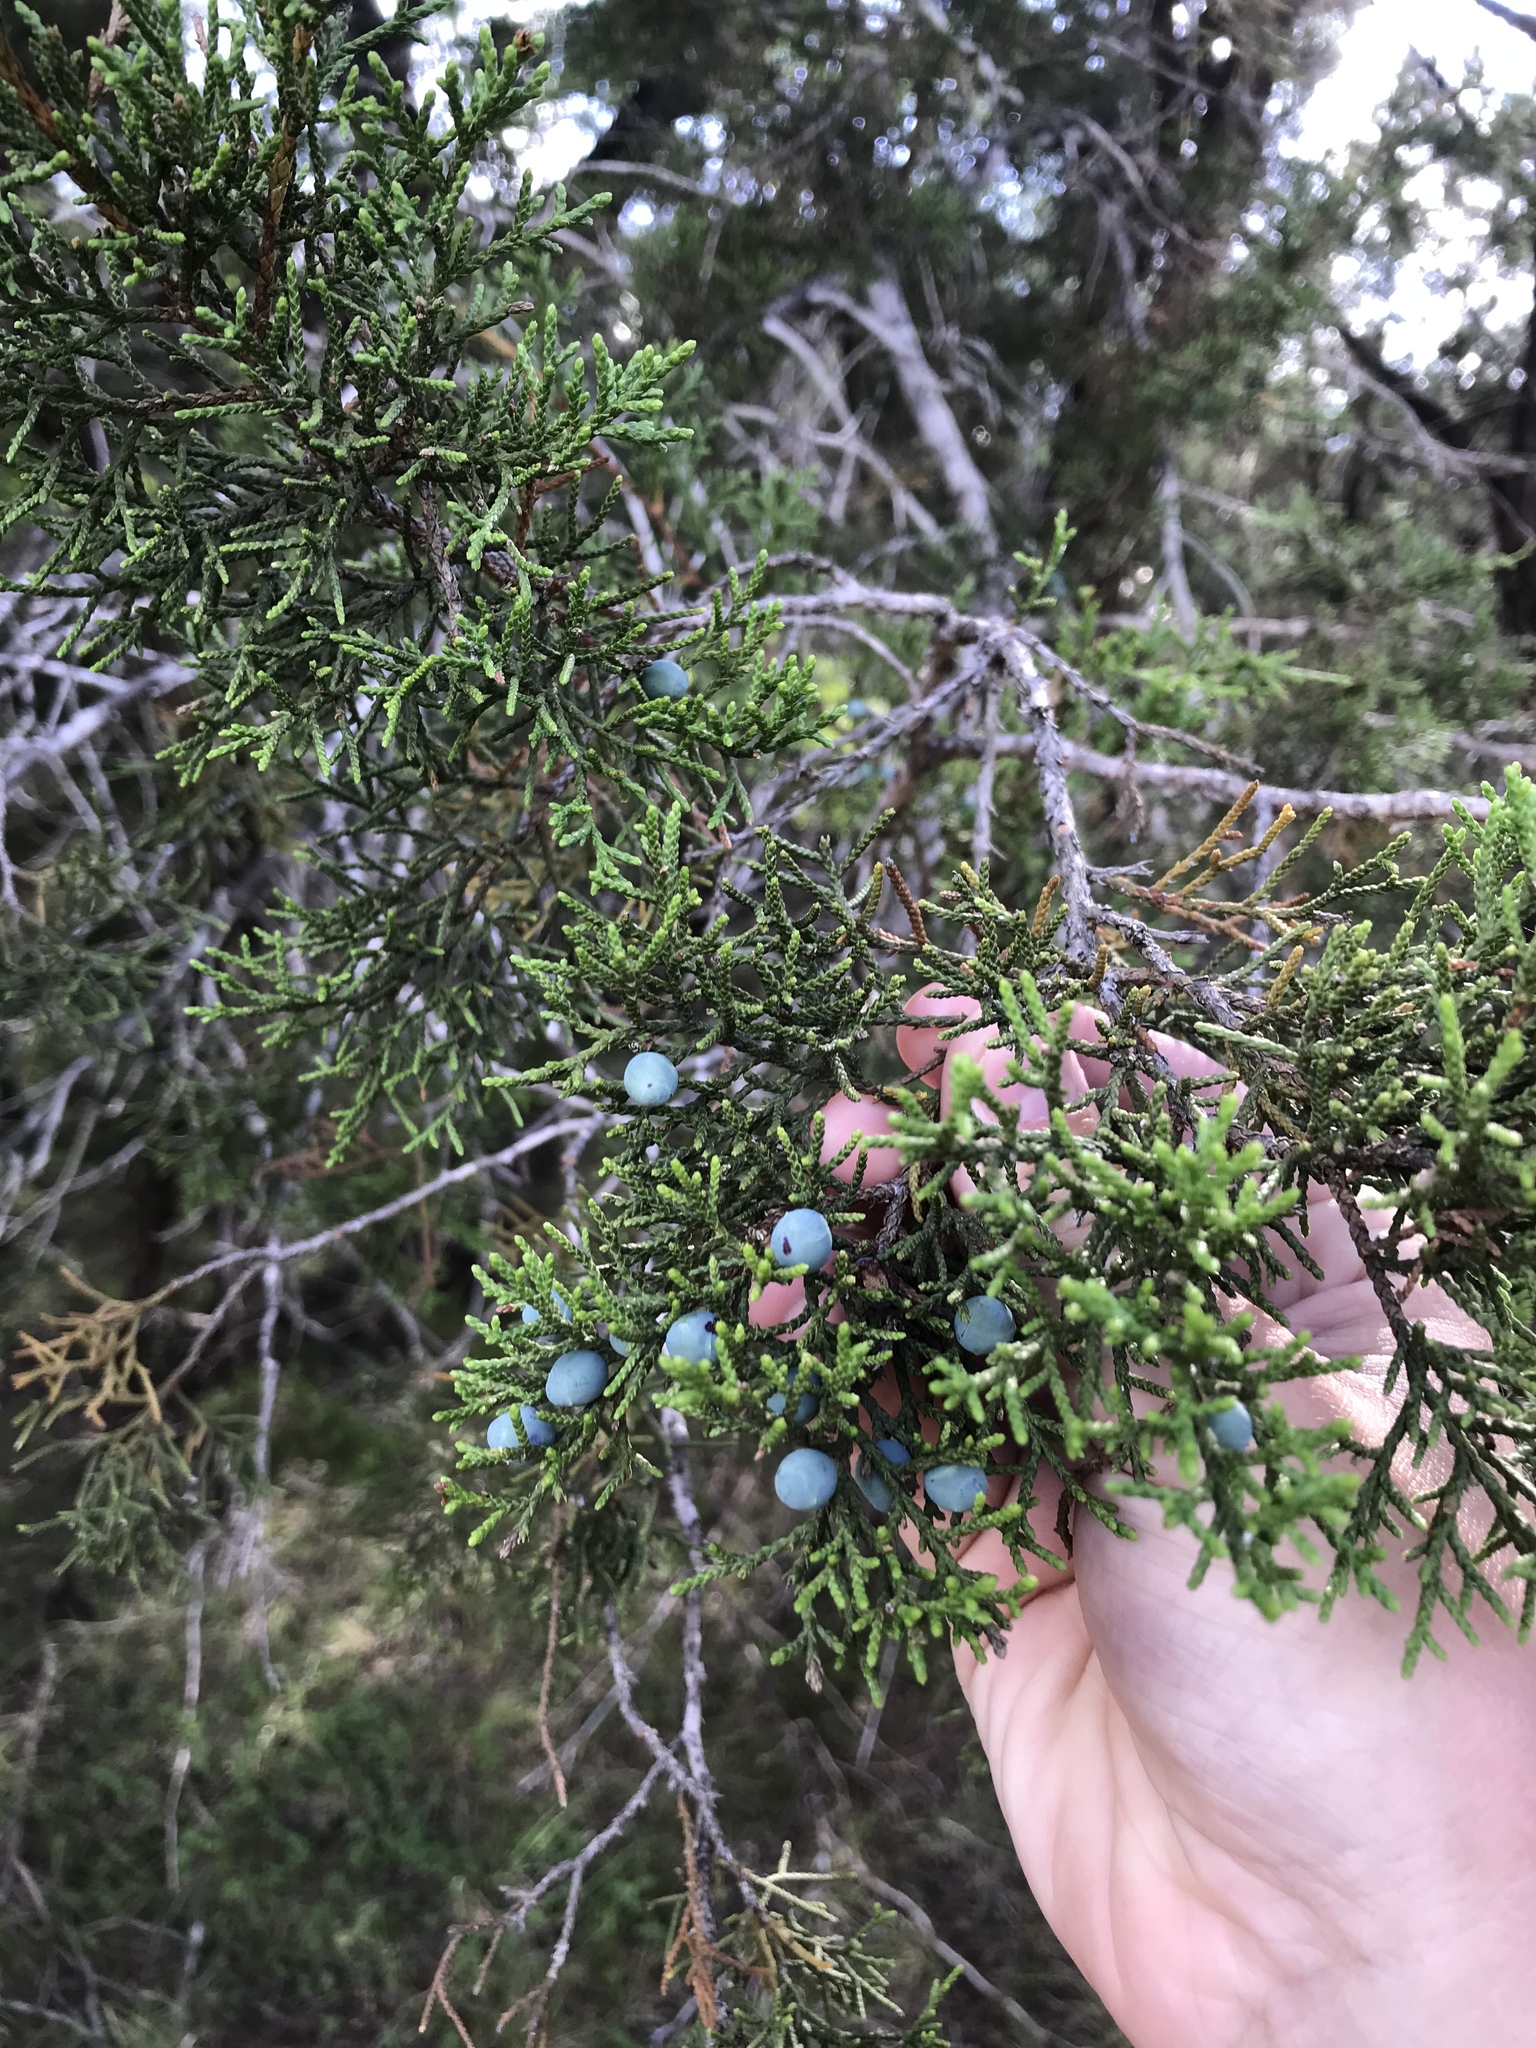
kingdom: Plantae
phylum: Tracheophyta
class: Pinopsida
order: Pinales
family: Cupressaceae
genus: Juniperus
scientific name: Juniperus ashei
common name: Mexican juniper
